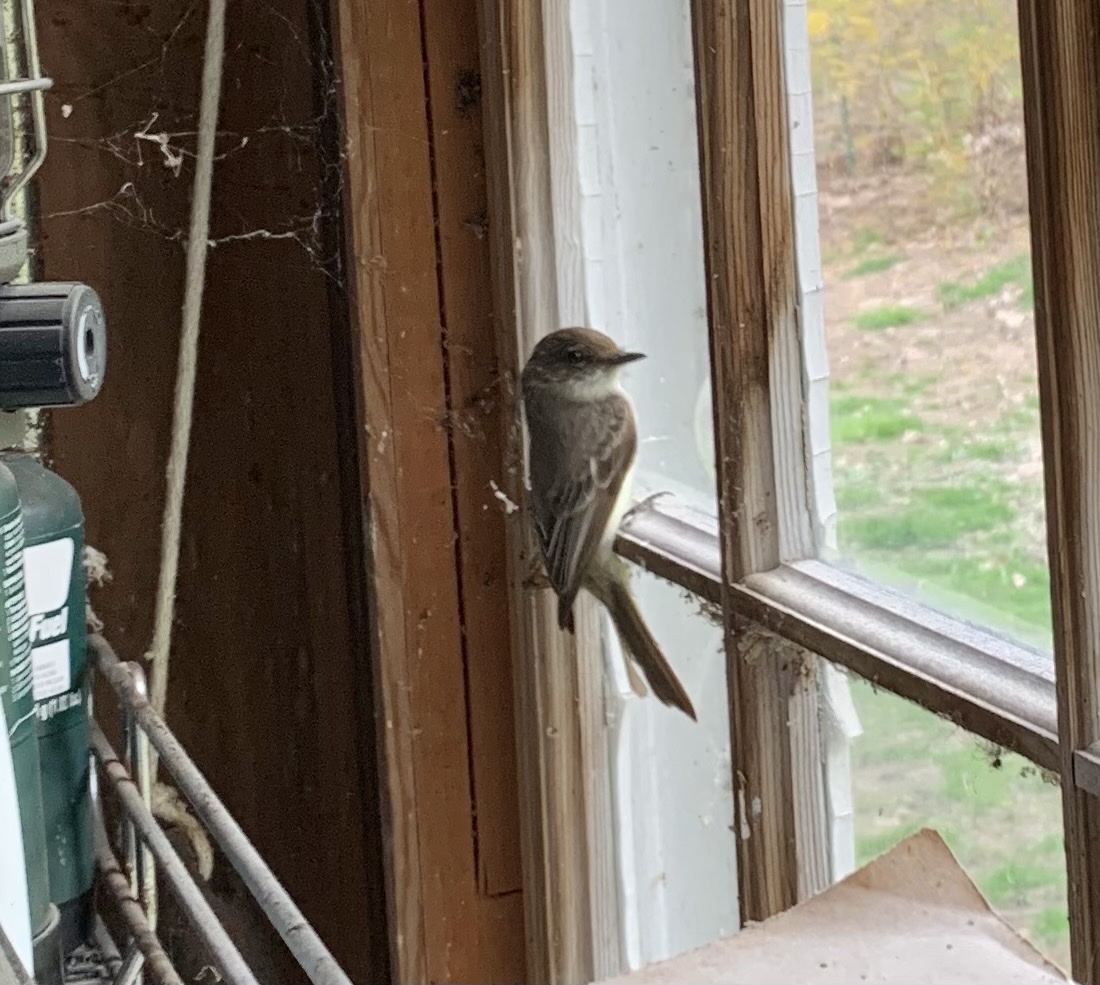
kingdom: Animalia
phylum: Chordata
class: Aves
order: Passeriformes
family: Tyrannidae
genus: Sayornis
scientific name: Sayornis phoebe
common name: Eastern phoebe
